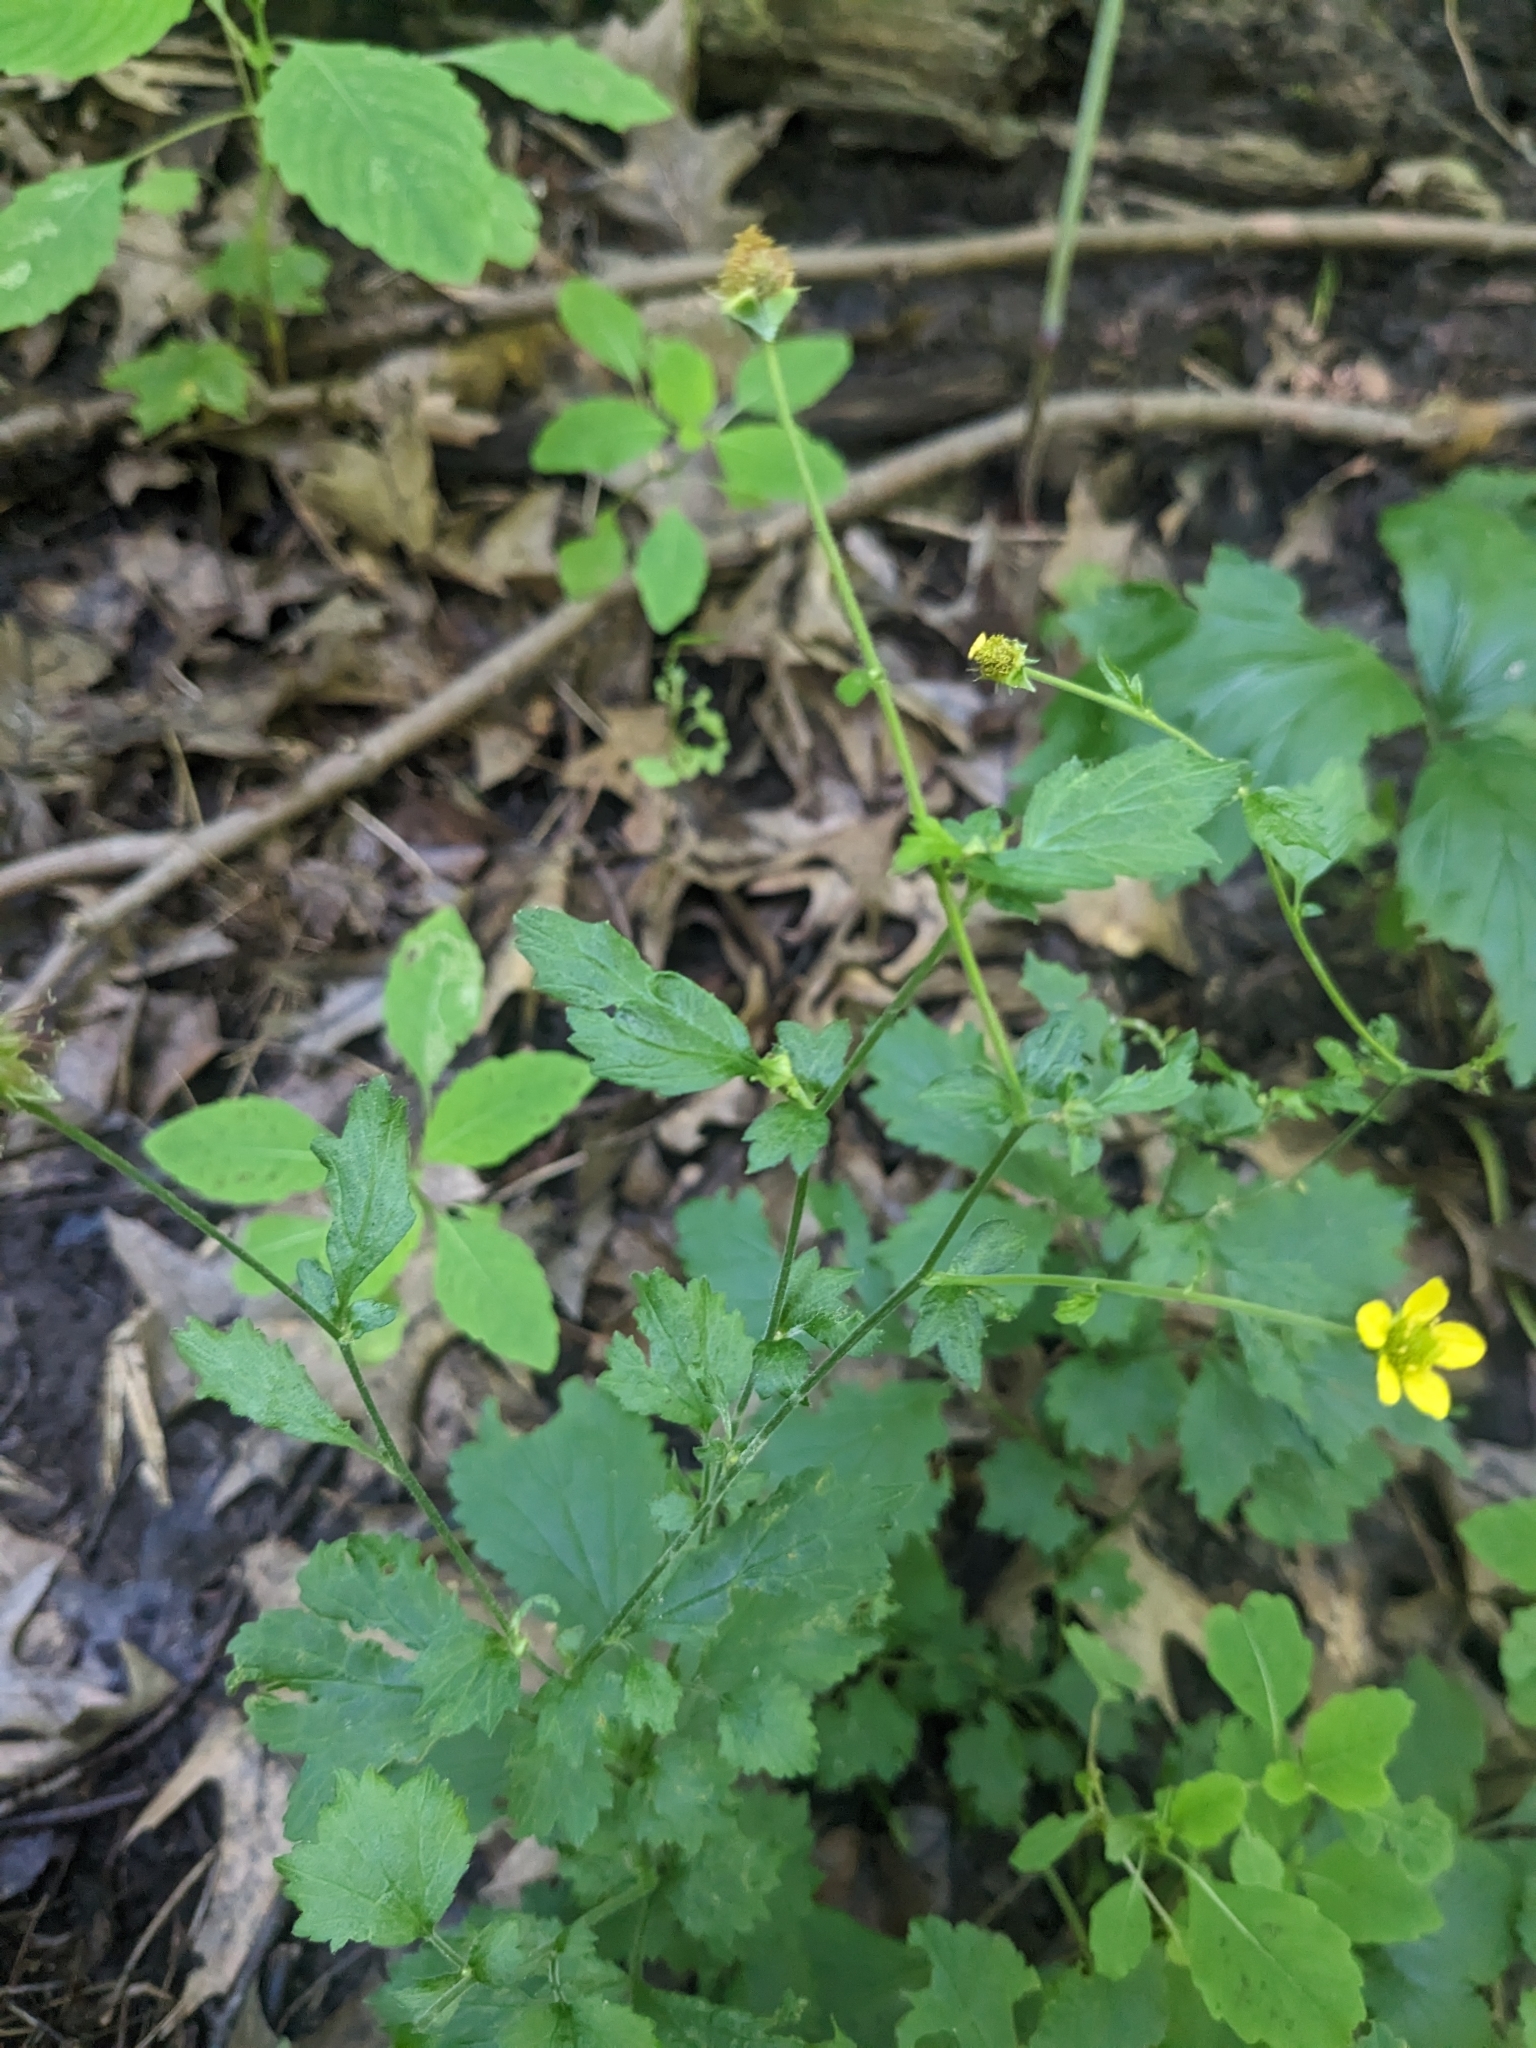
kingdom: Plantae
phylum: Tracheophyta
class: Magnoliopsida
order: Rosales
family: Rosaceae
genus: Geum
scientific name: Geum urbanum
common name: Wood avens
